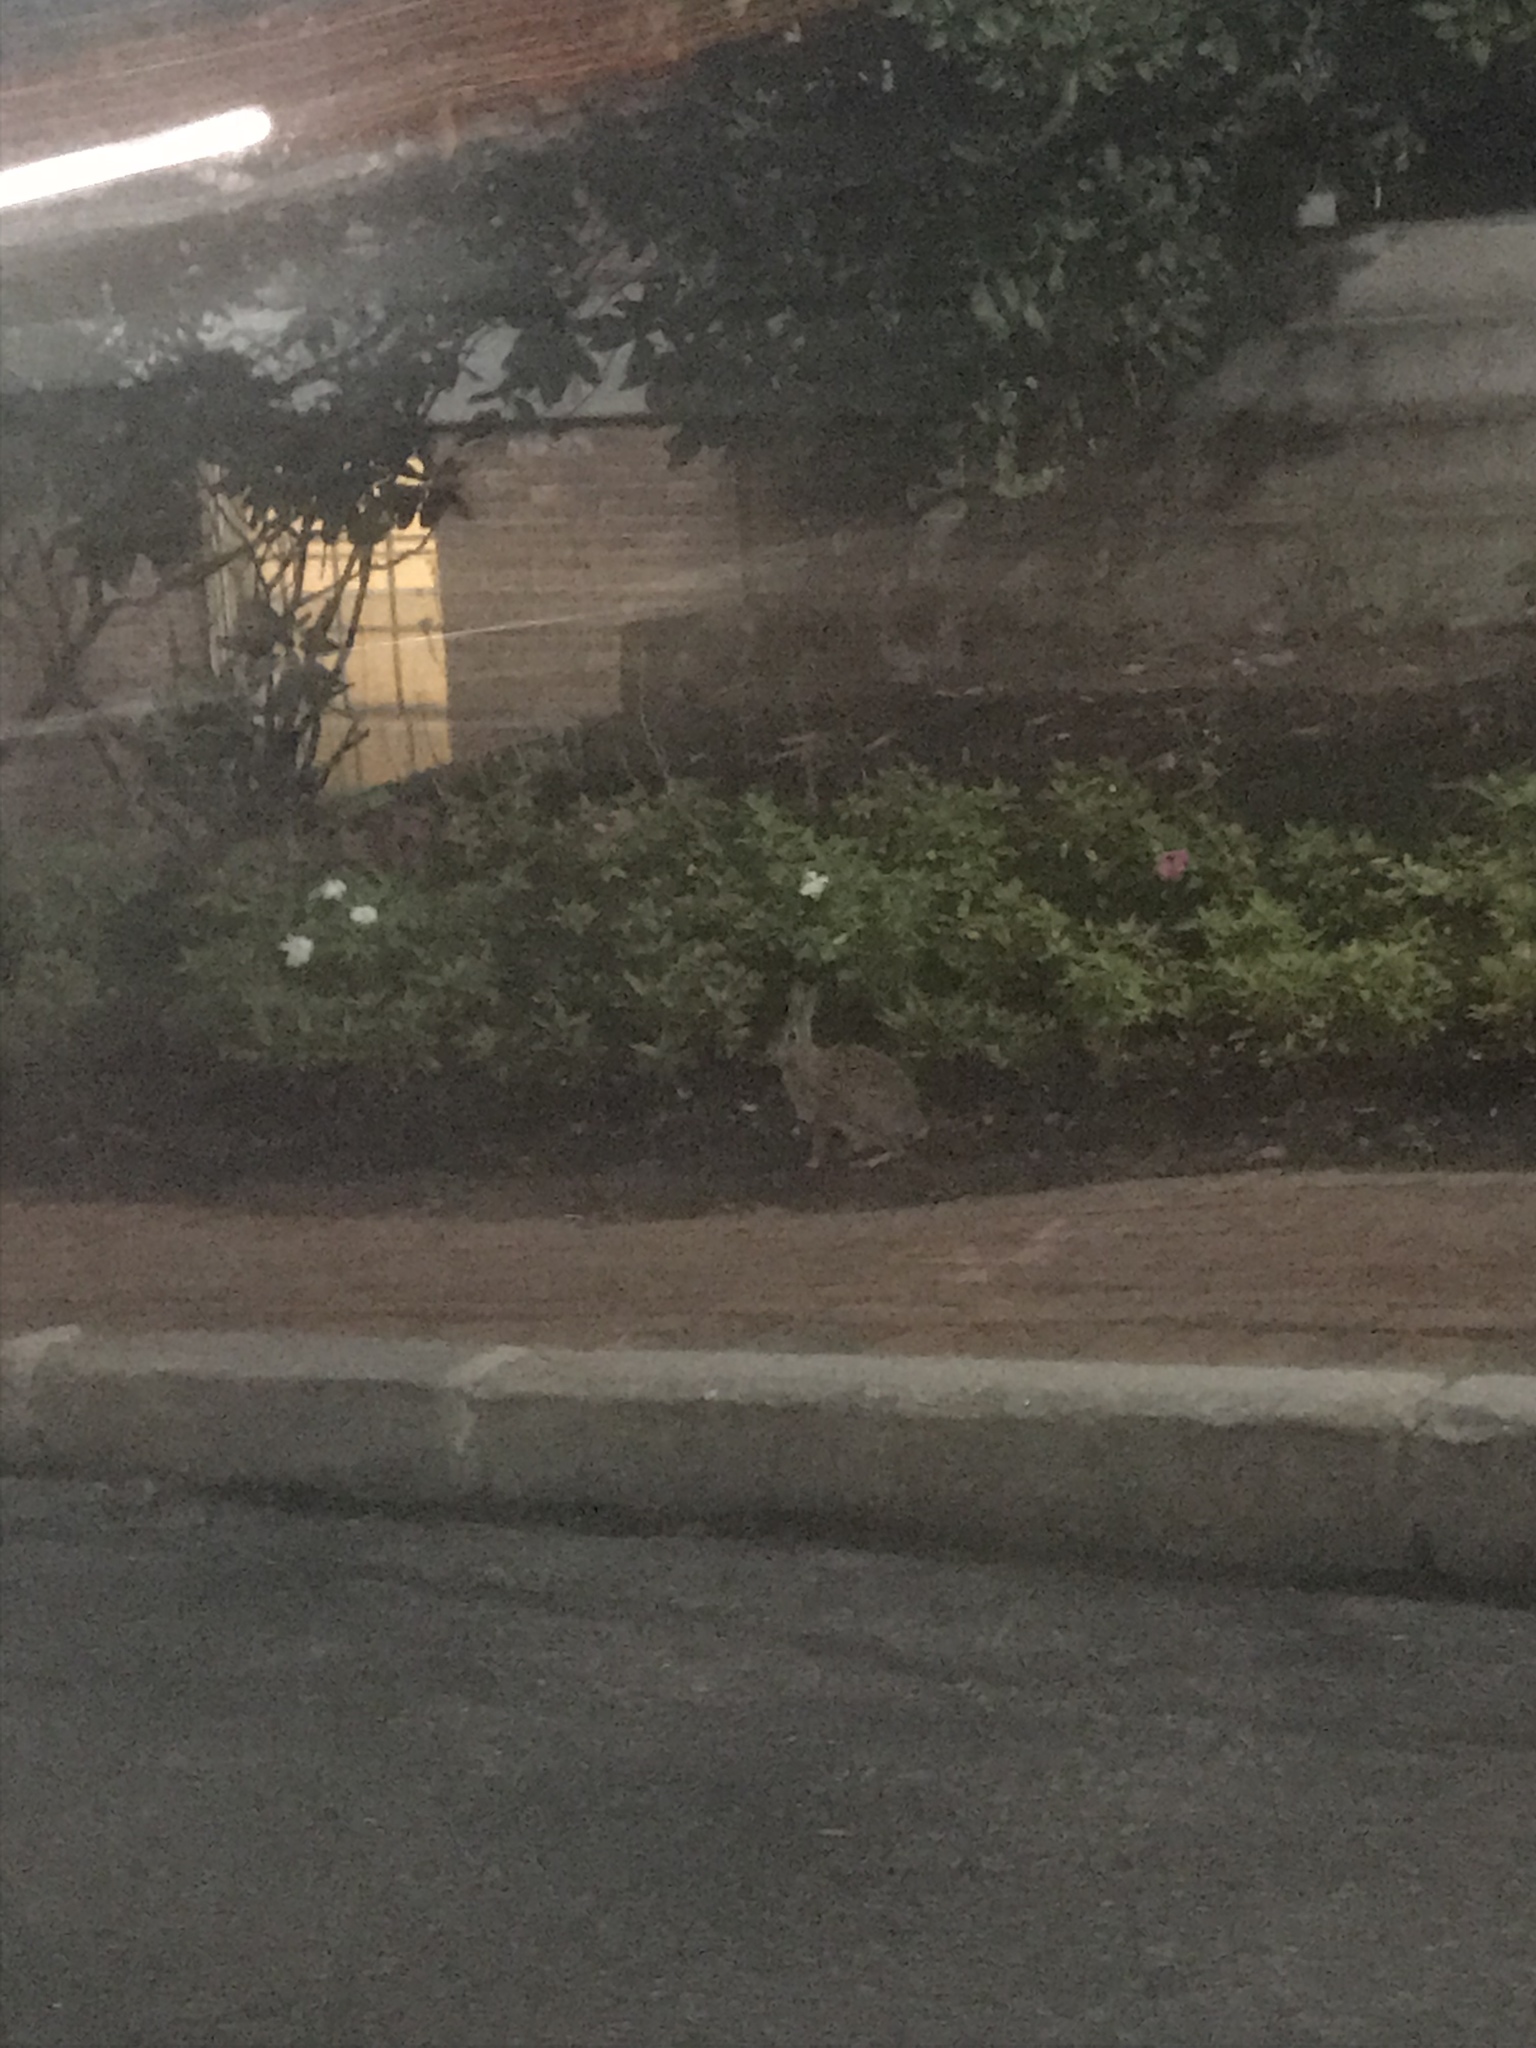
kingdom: Animalia
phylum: Chordata
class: Mammalia
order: Lagomorpha
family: Leporidae
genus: Sylvilagus
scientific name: Sylvilagus floridanus
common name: Eastern cottontail
